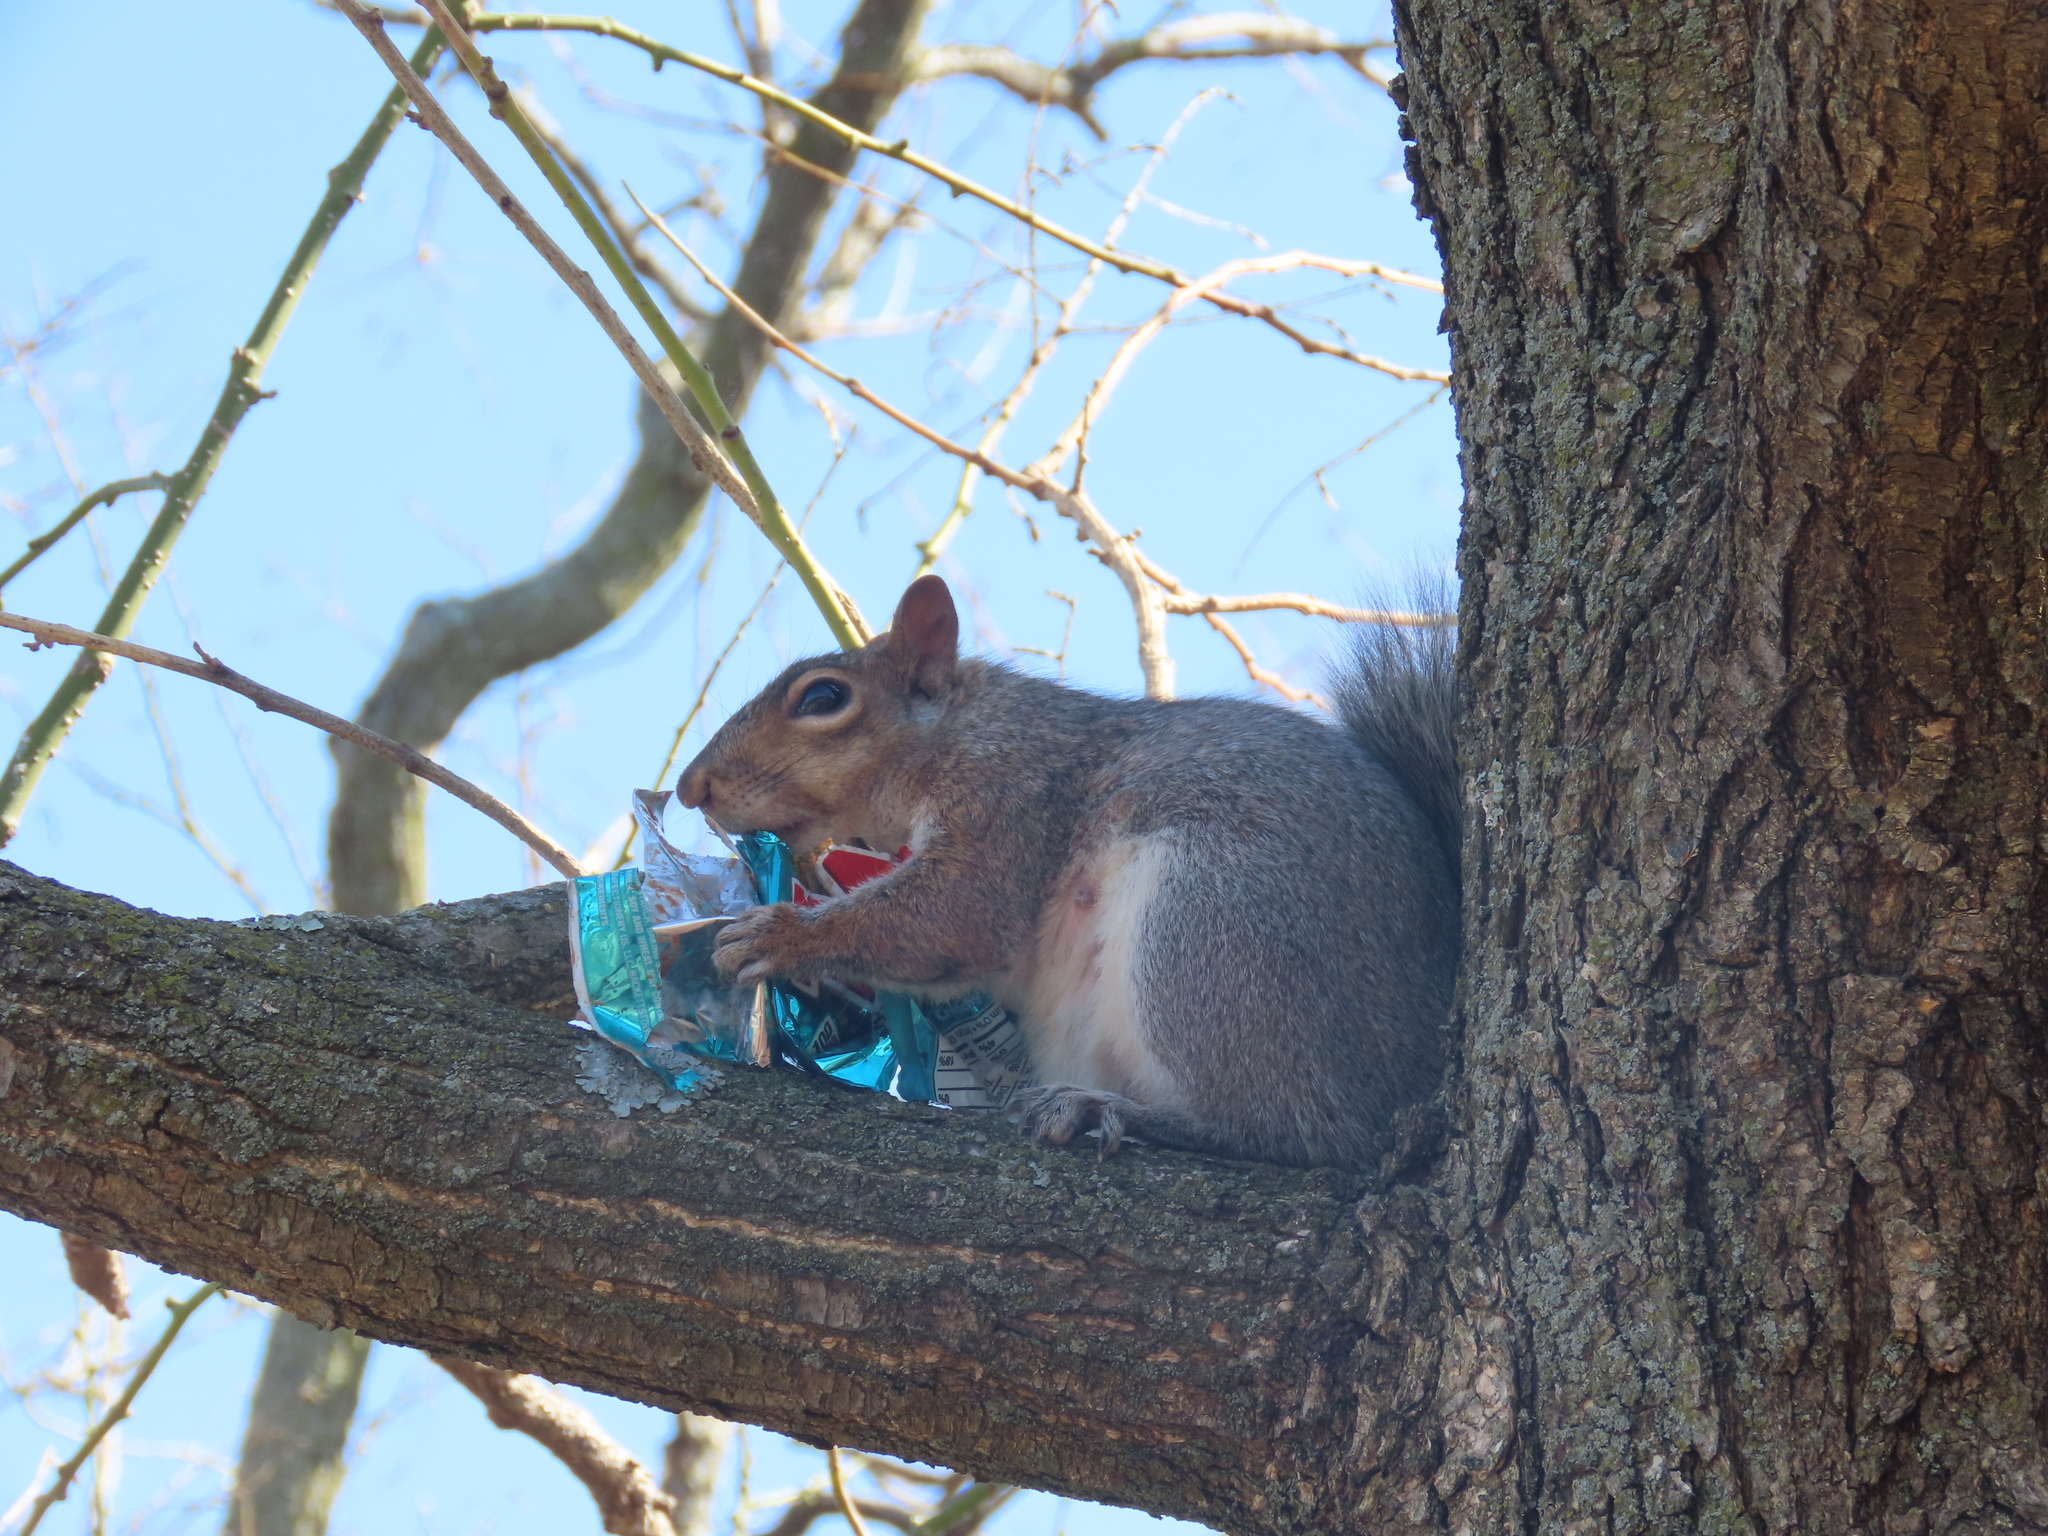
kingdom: Animalia
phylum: Chordata
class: Mammalia
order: Rodentia
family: Sciuridae
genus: Sciurus
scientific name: Sciurus carolinensis
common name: Eastern gray squirrel
